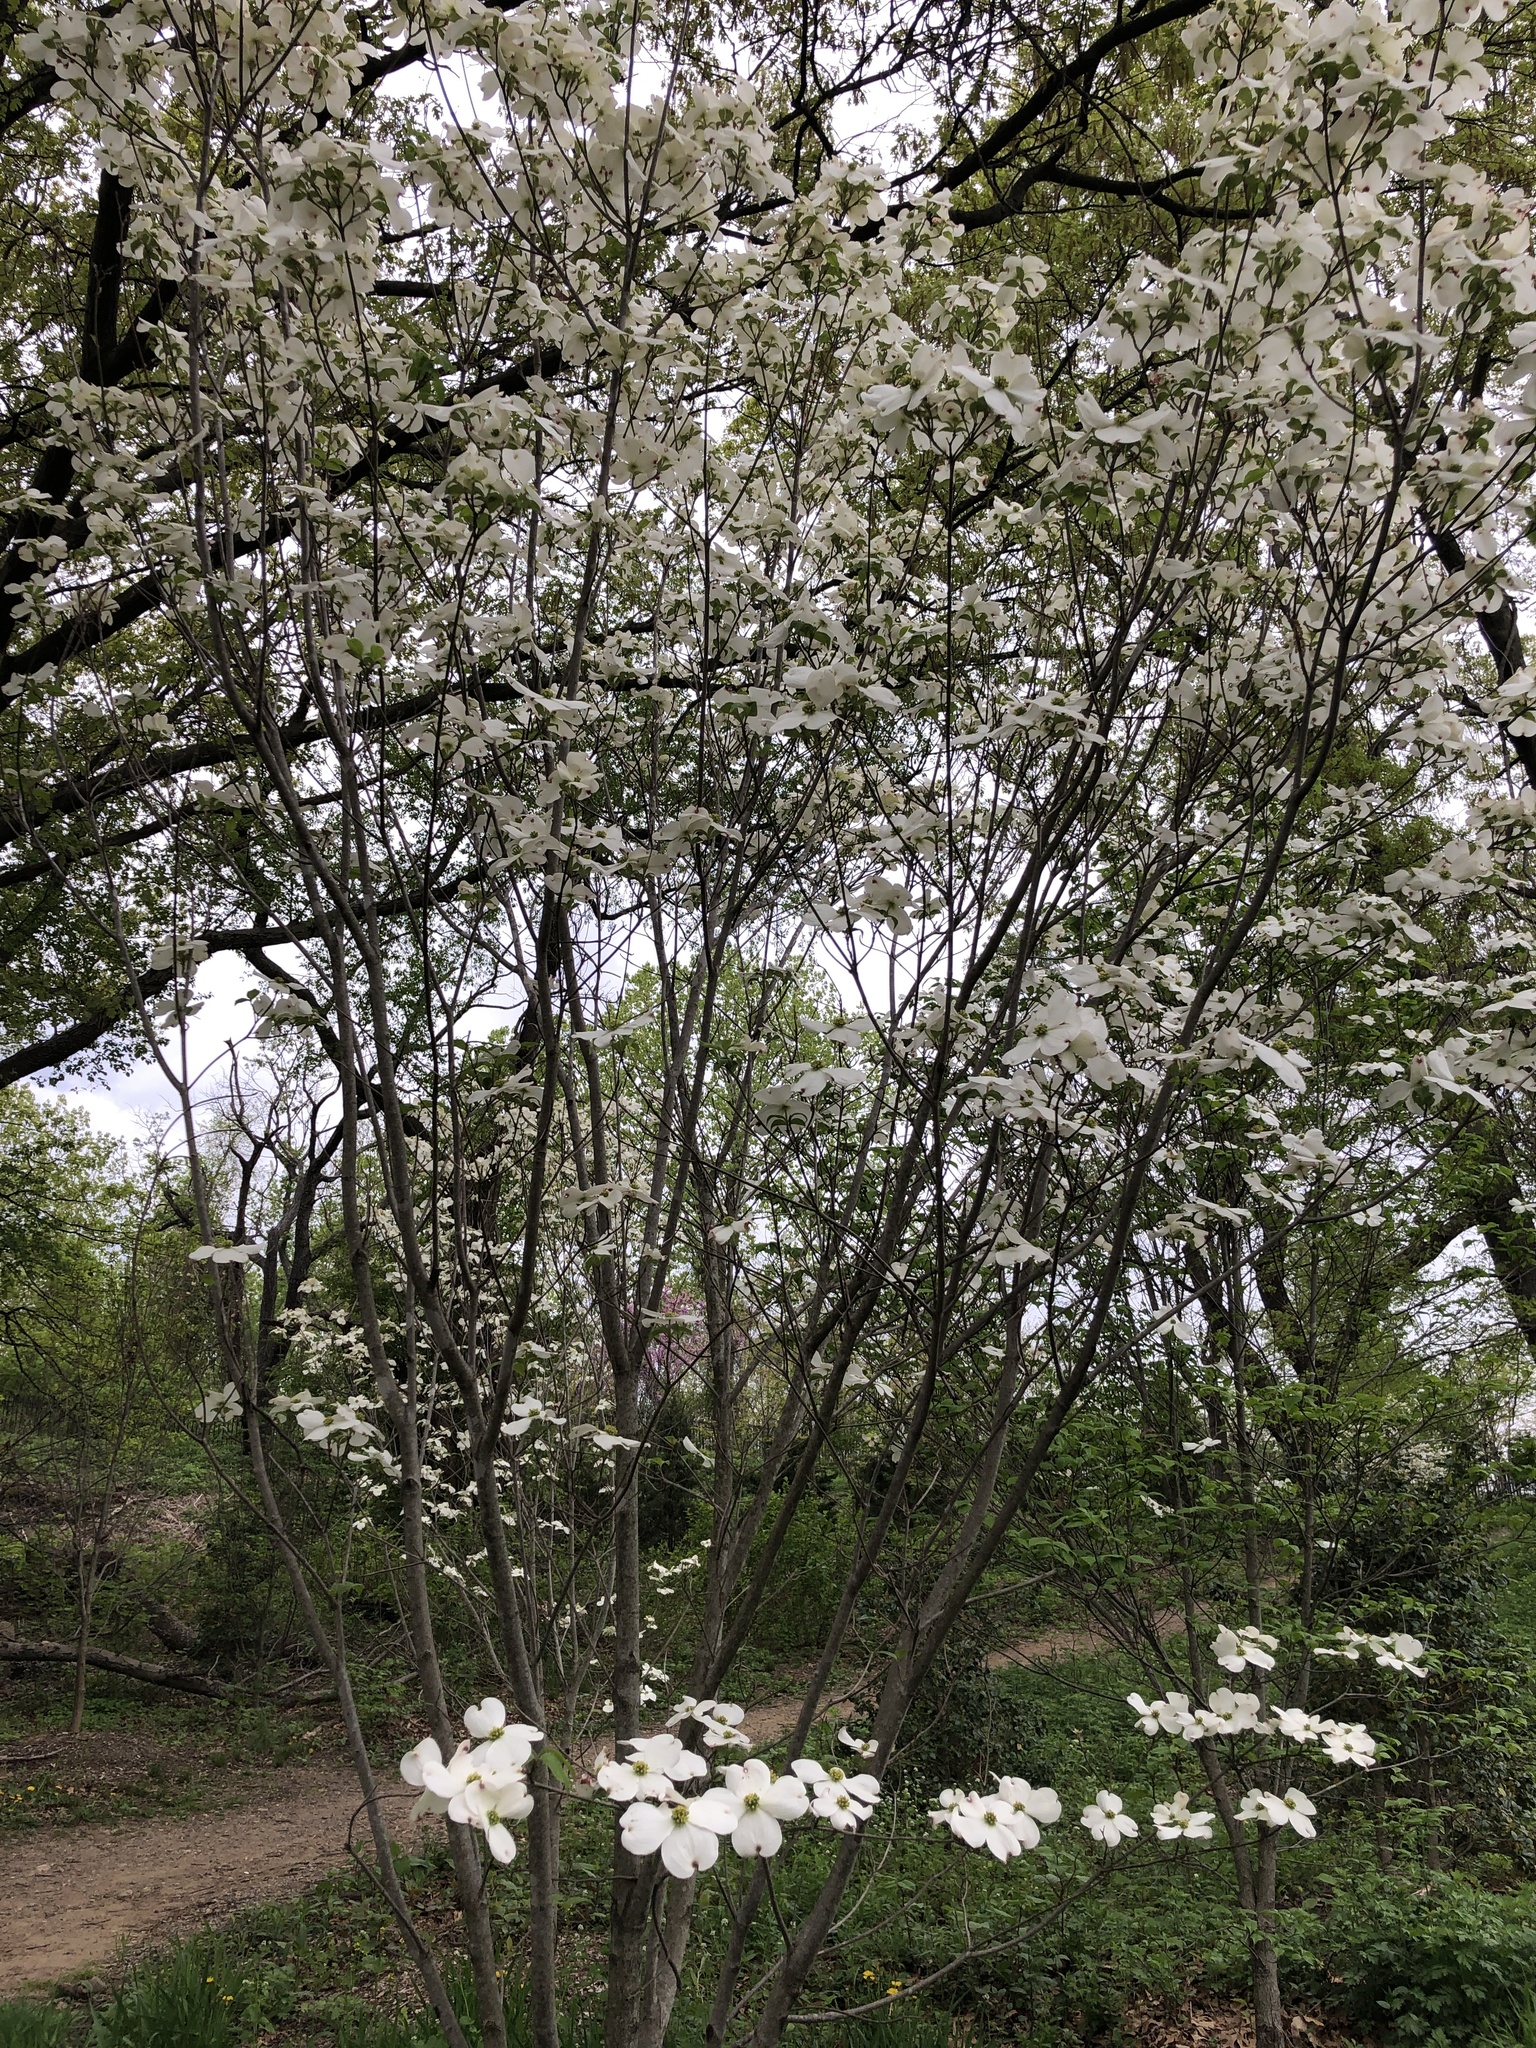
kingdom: Plantae
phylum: Tracheophyta
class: Magnoliopsida
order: Cornales
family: Cornaceae
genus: Cornus
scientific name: Cornus florida
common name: Flowering dogwood
